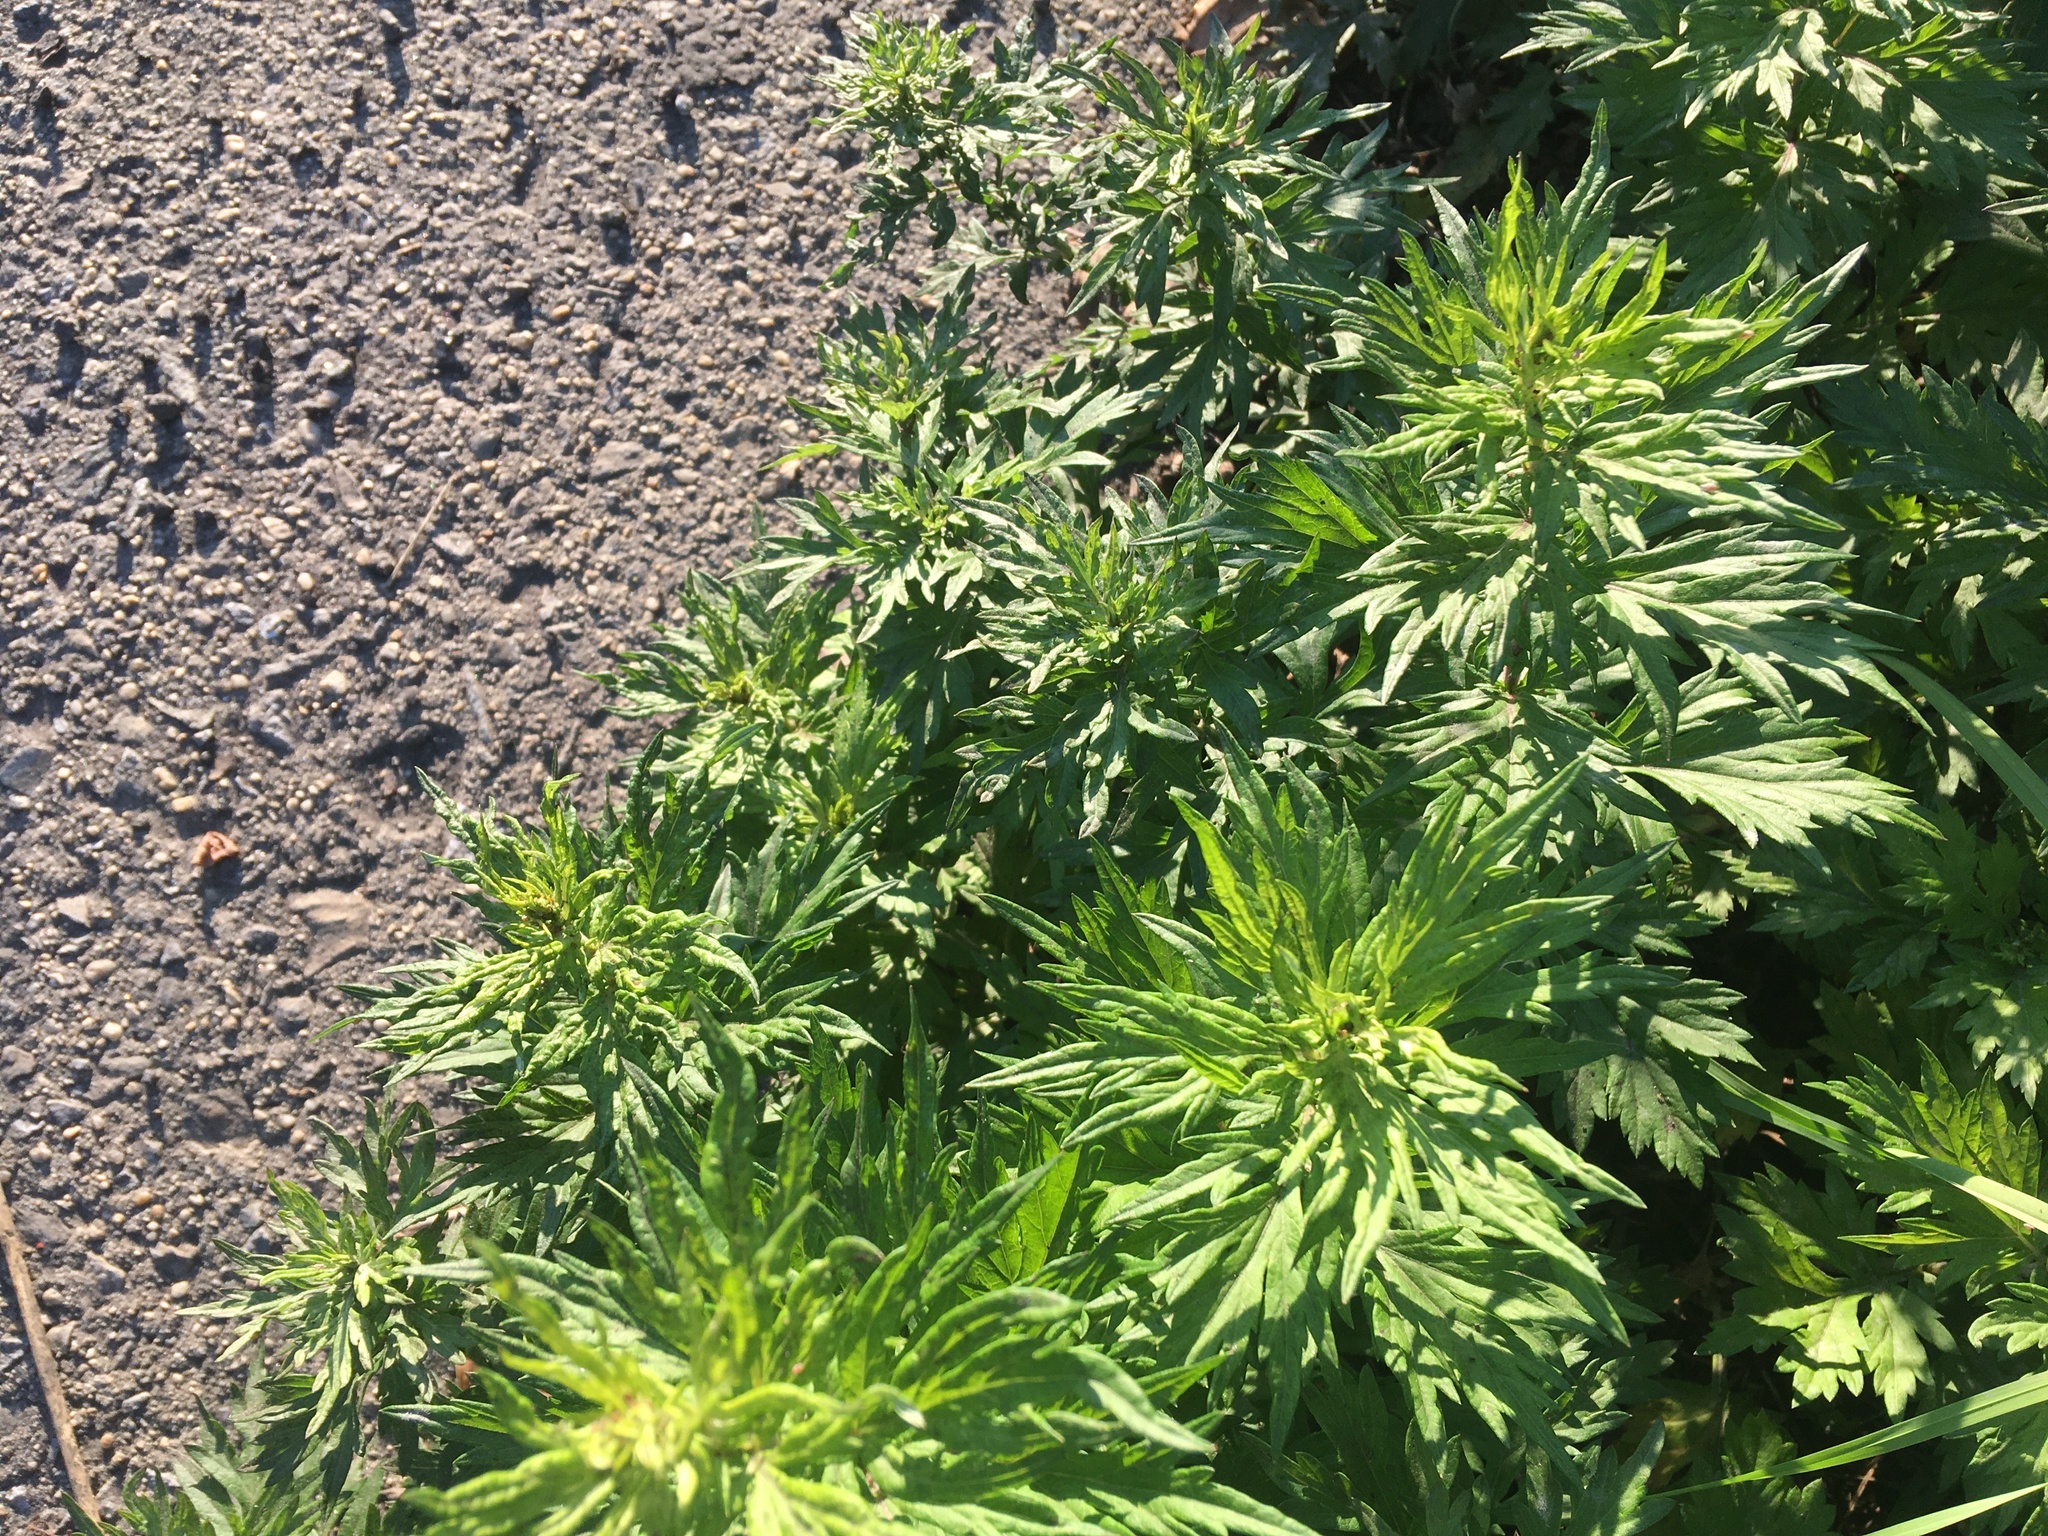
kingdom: Plantae
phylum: Tracheophyta
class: Magnoliopsida
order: Asterales
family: Asteraceae
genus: Artemisia
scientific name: Artemisia vulgaris
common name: Mugwort
